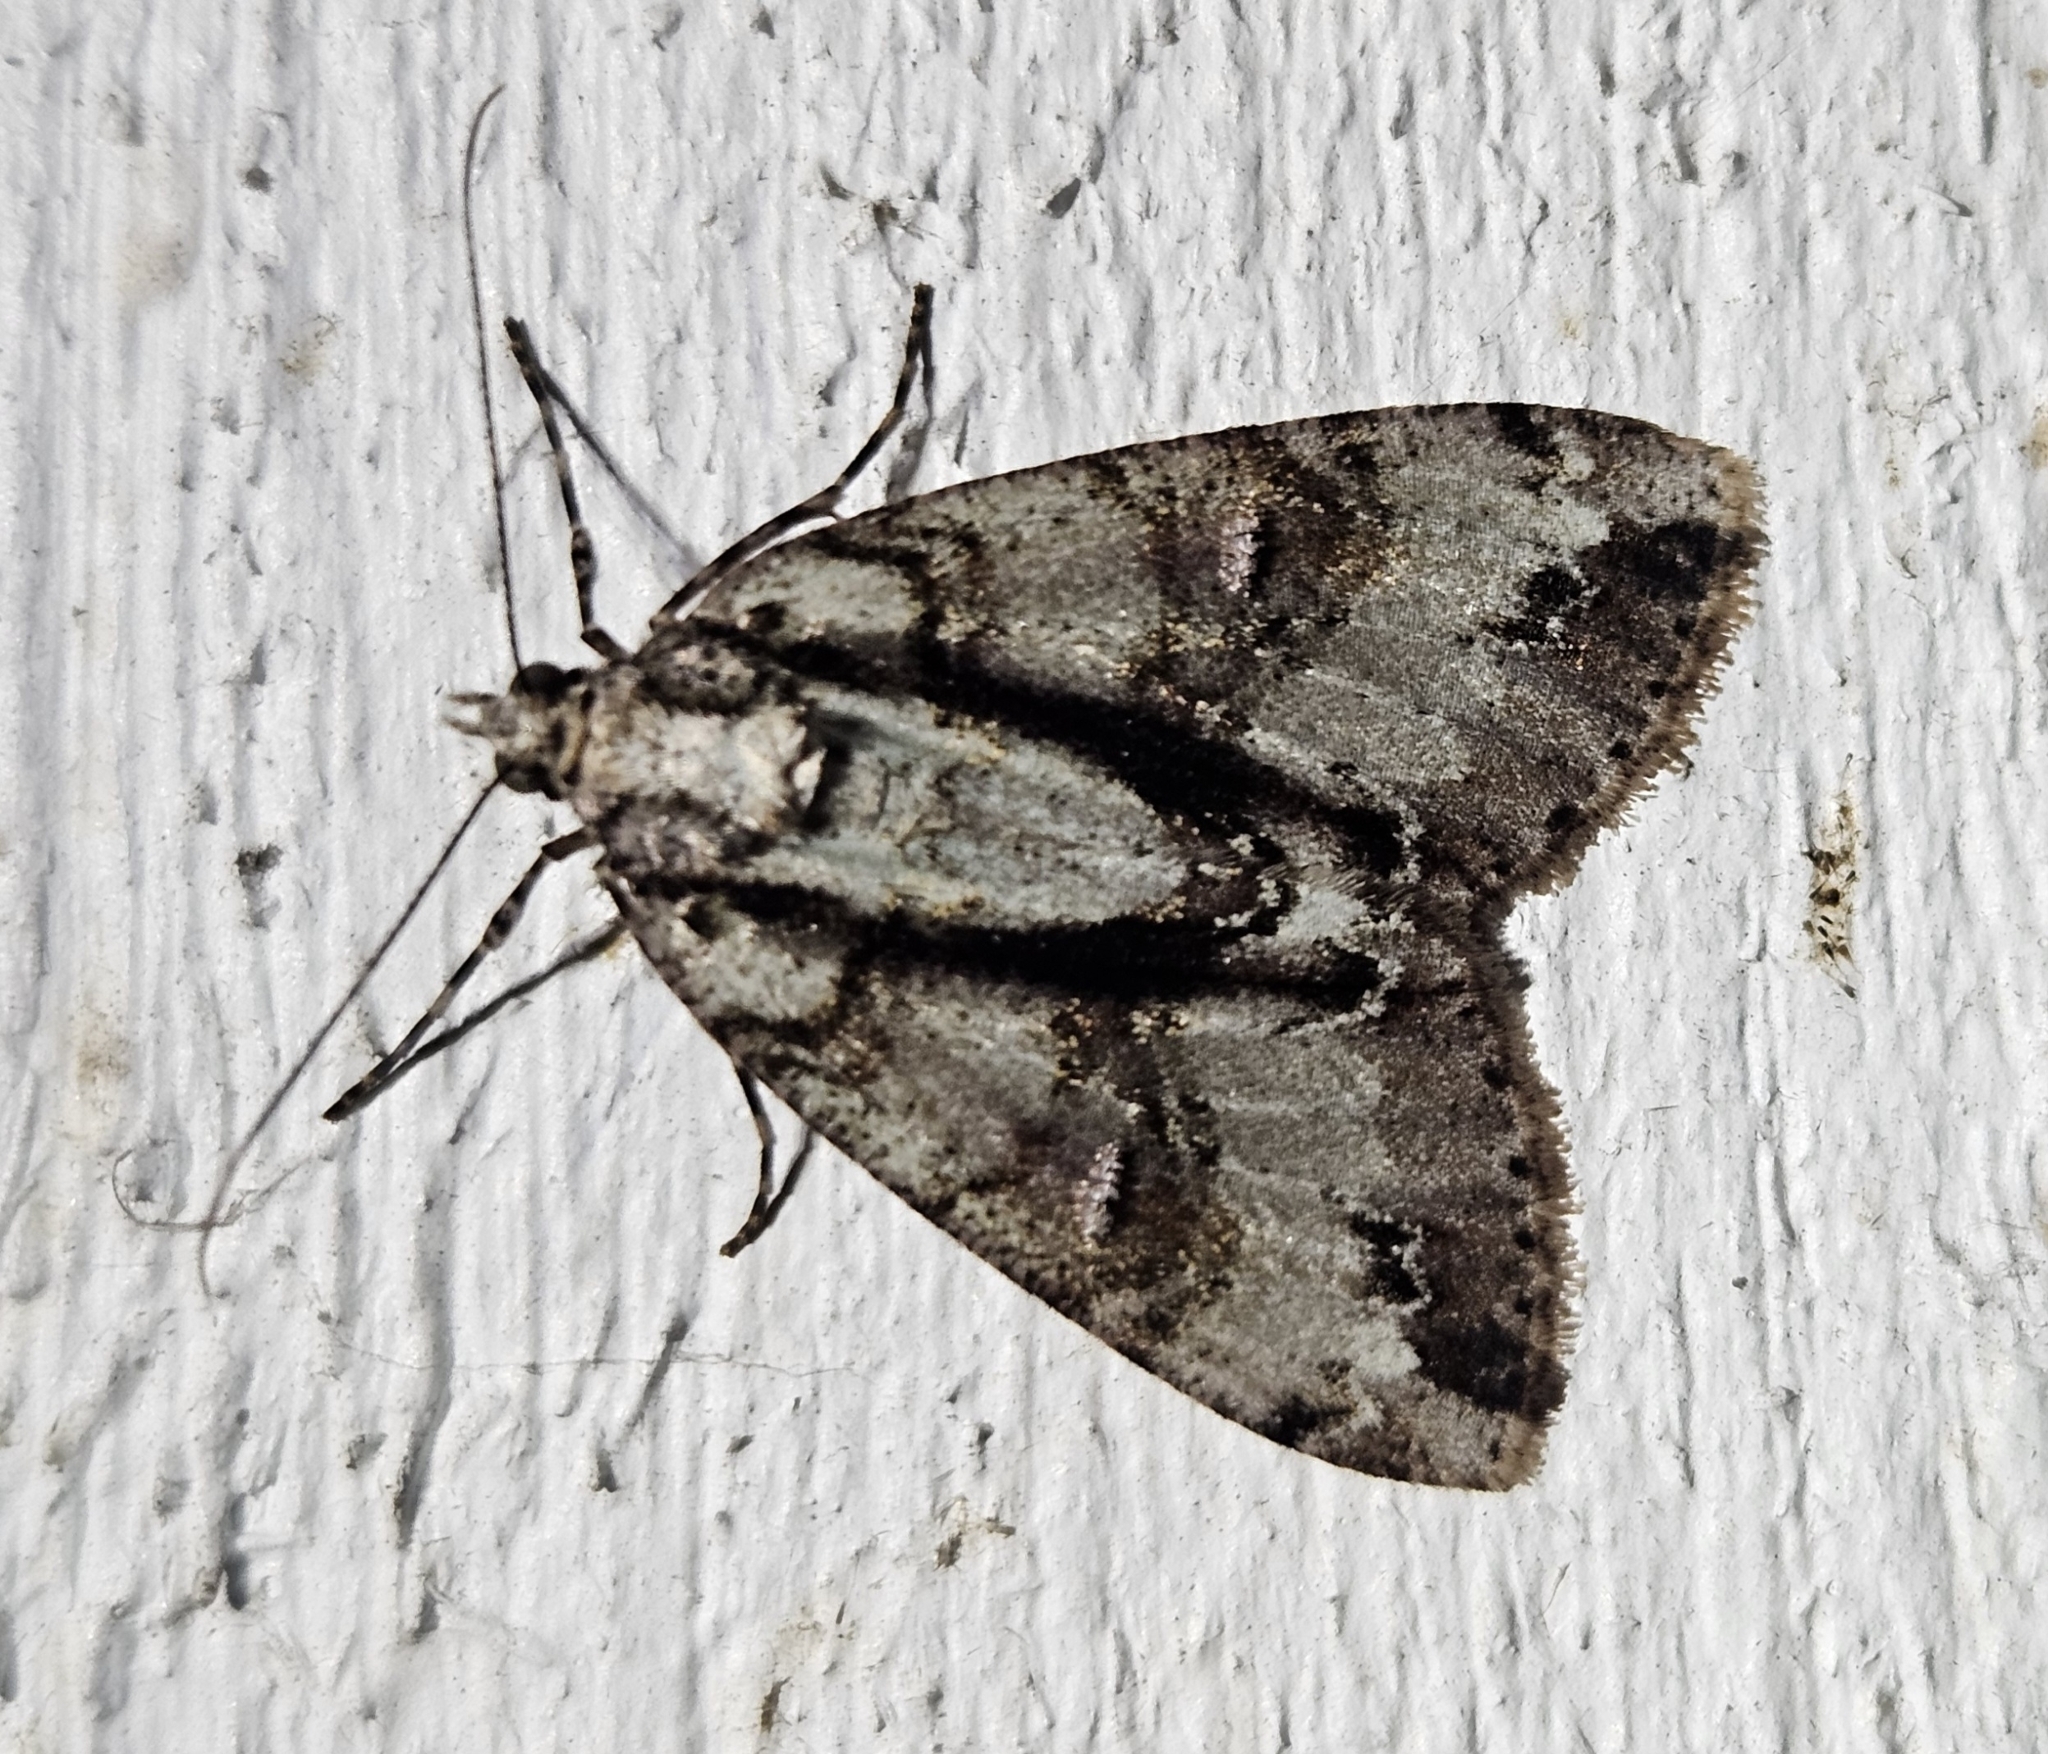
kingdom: Animalia
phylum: Arthropoda
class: Insecta
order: Lepidoptera
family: Geometridae
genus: Pseudocoremia
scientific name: Pseudocoremia suavis
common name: Common forest looper
